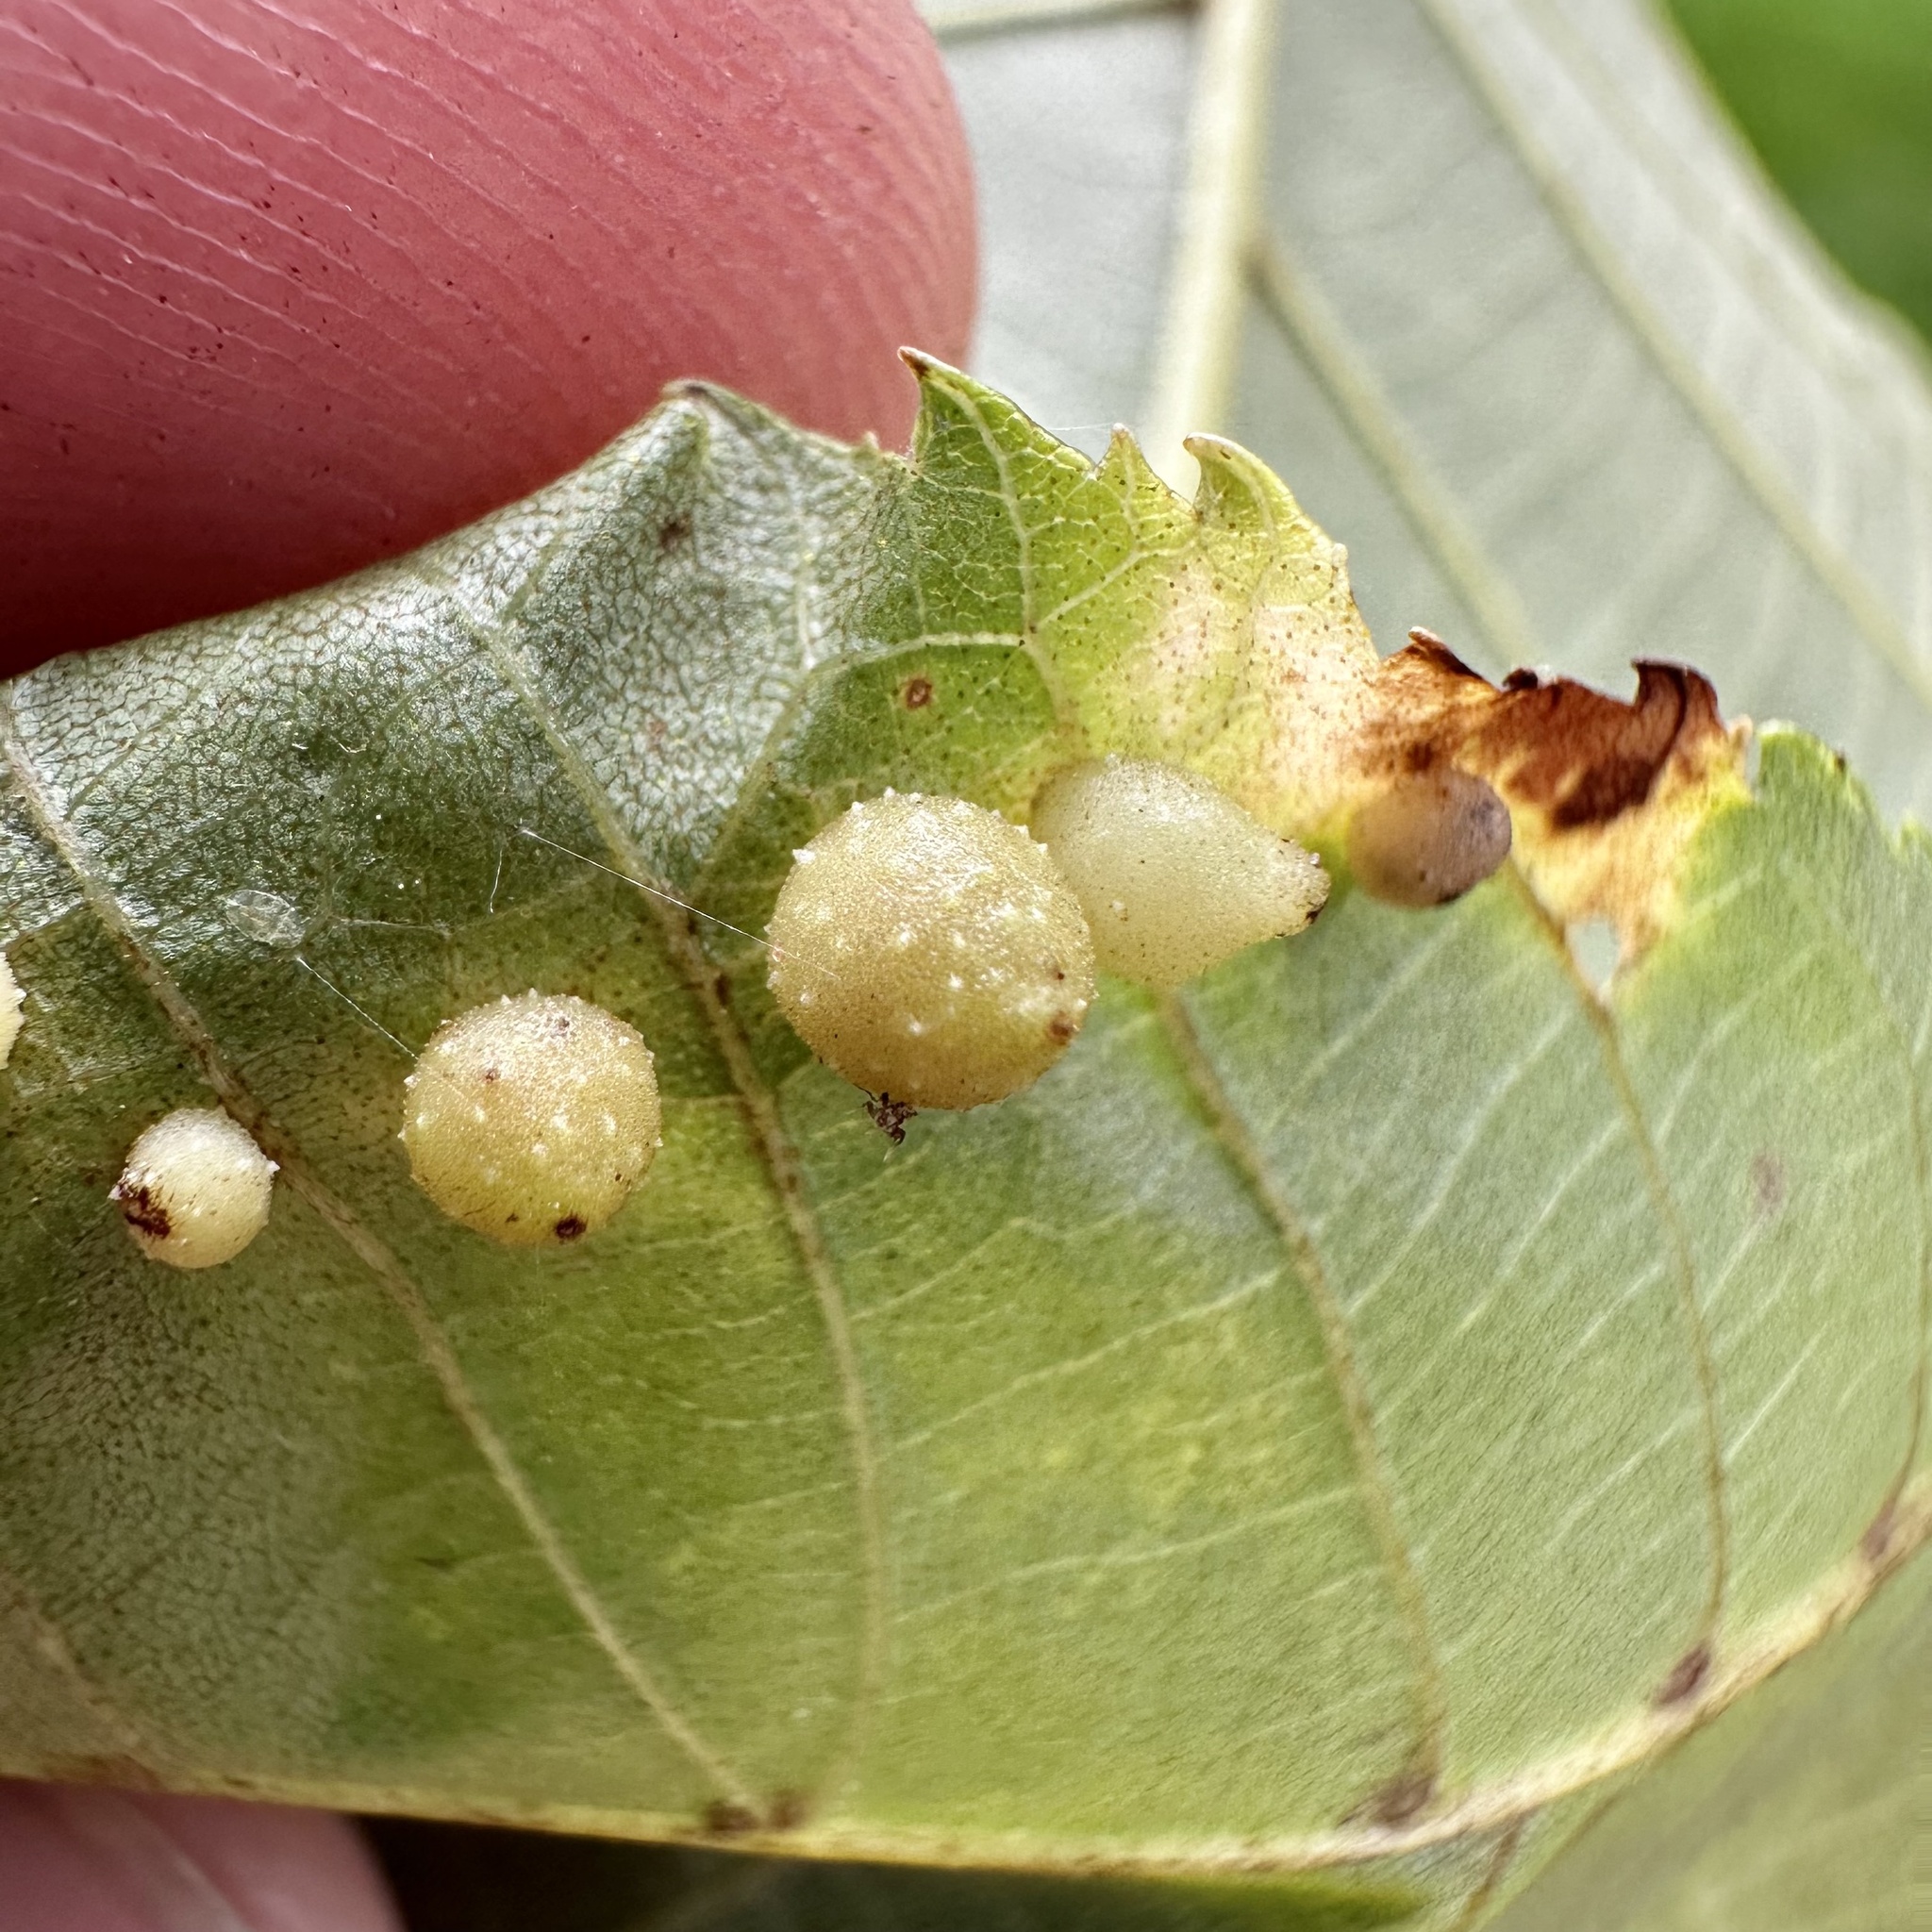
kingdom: Animalia
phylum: Arthropoda
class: Insecta
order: Diptera
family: Cecidomyiidae
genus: Caryomyia
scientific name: Caryomyia tuberculata
